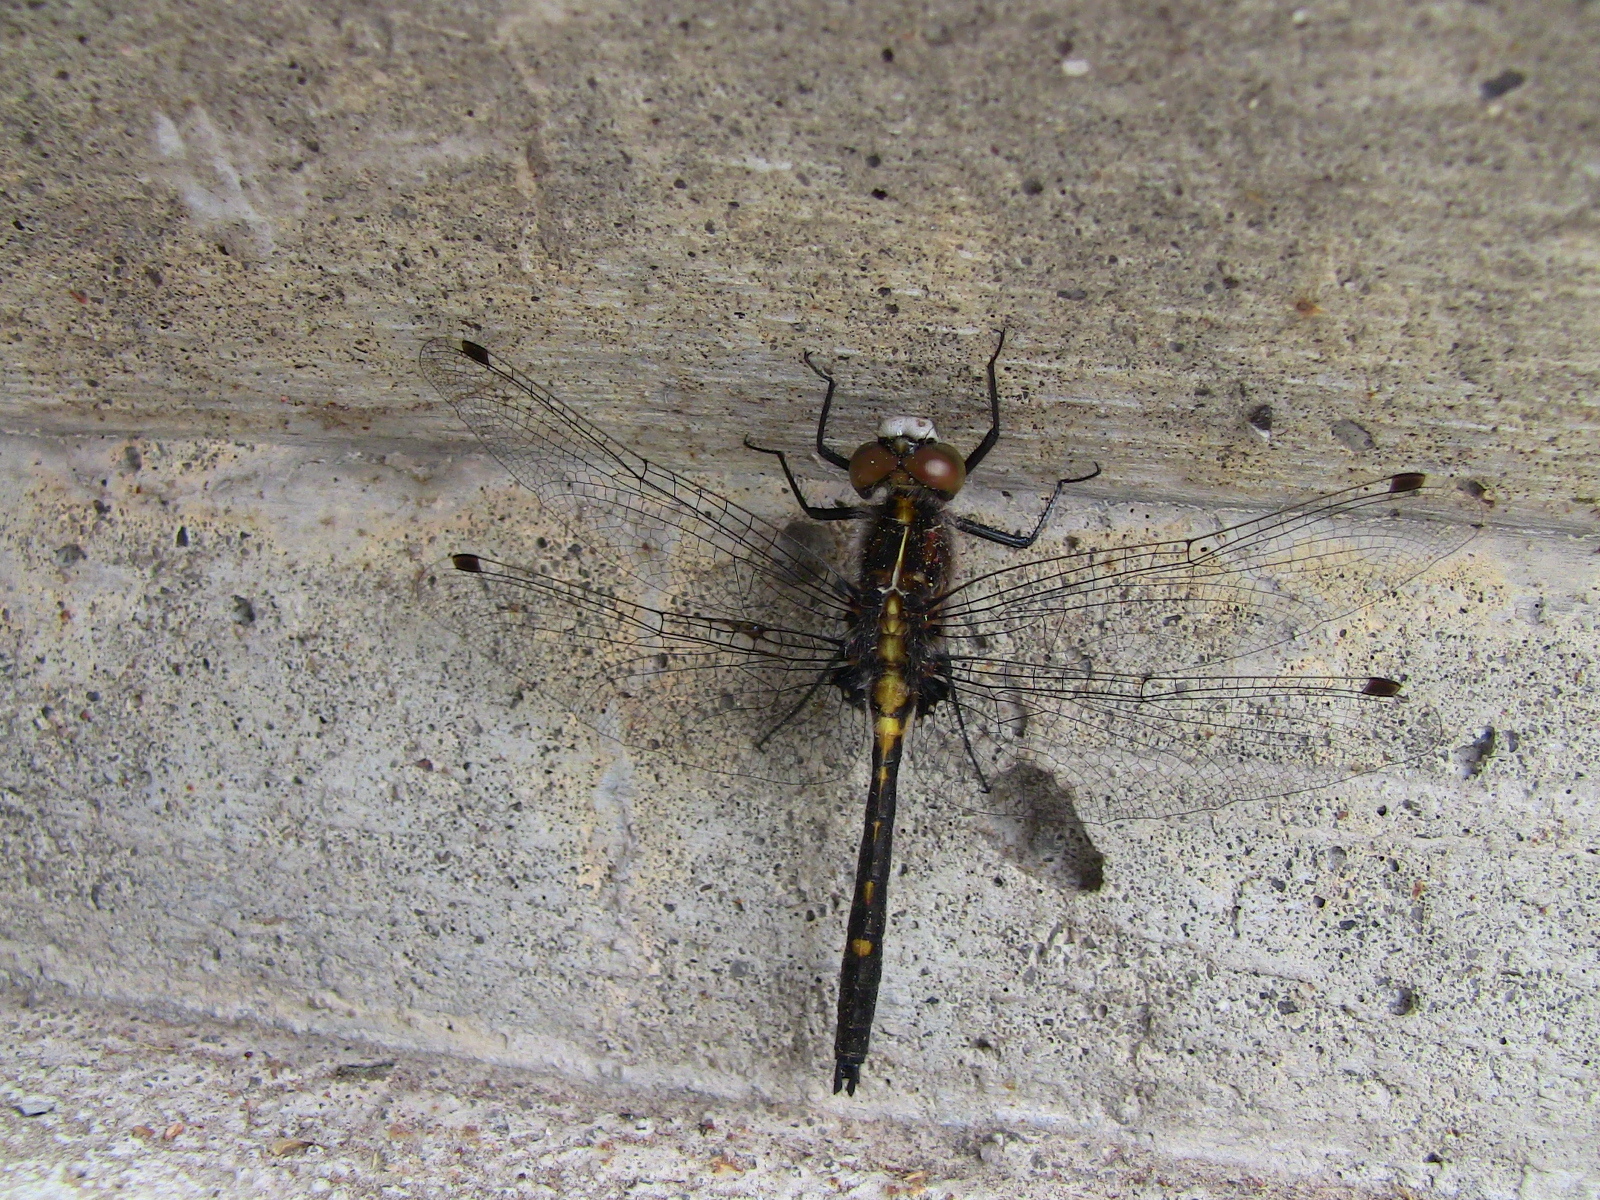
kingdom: Animalia
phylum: Arthropoda
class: Insecta
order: Odonata
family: Libellulidae
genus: Leucorrhinia
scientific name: Leucorrhinia intacta
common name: Dot-tailed whiteface
